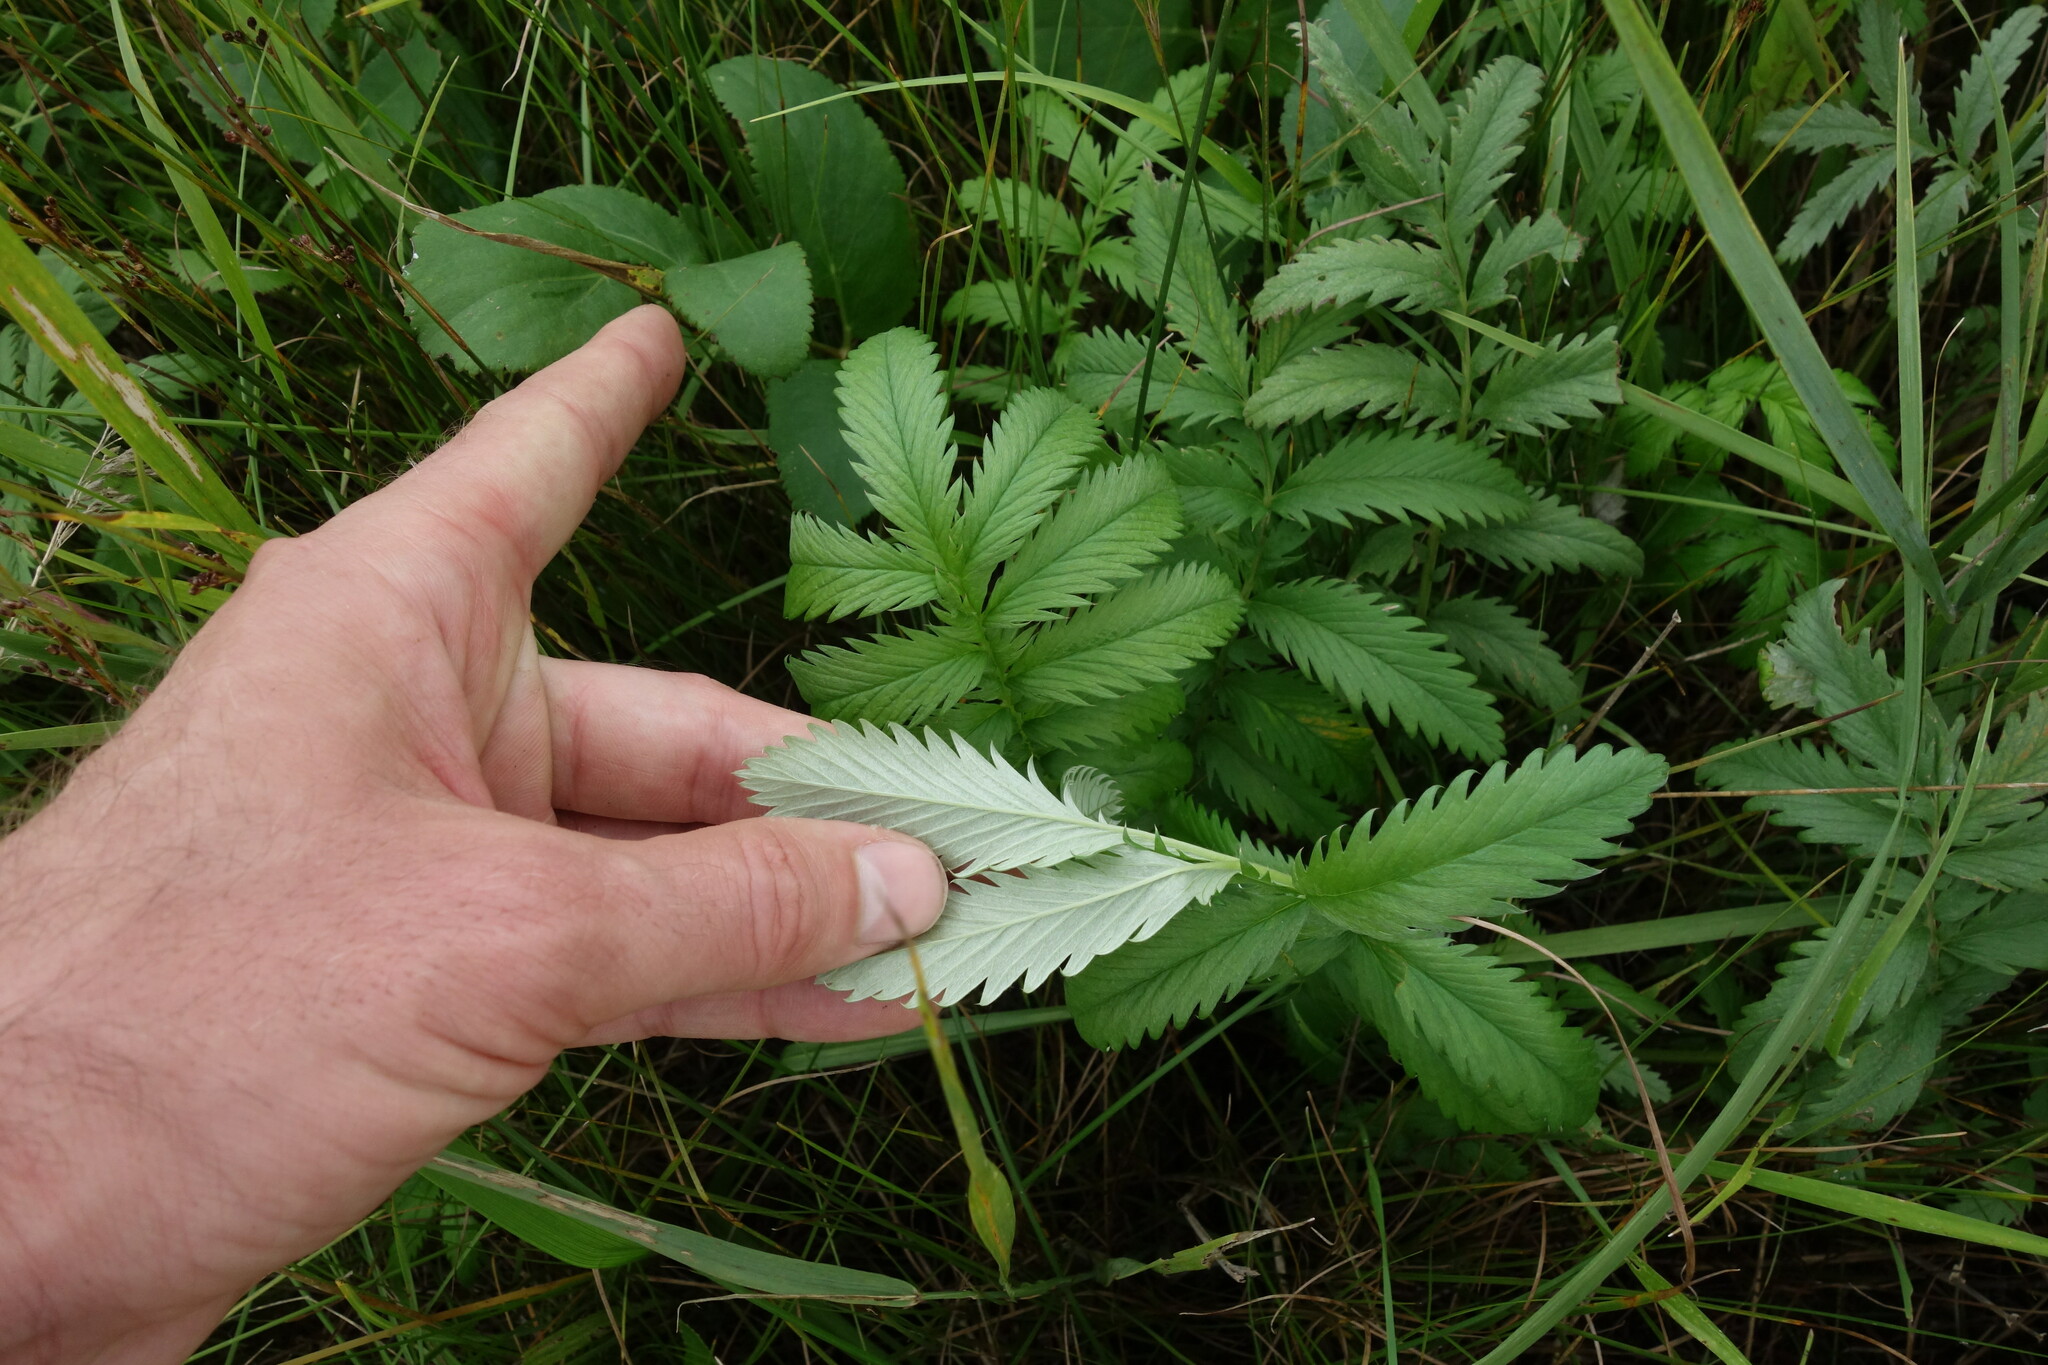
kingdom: Plantae
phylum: Tracheophyta
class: Magnoliopsida
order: Rosales
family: Rosaceae
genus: Argentina
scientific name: Argentina anserina
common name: Common silverweed
